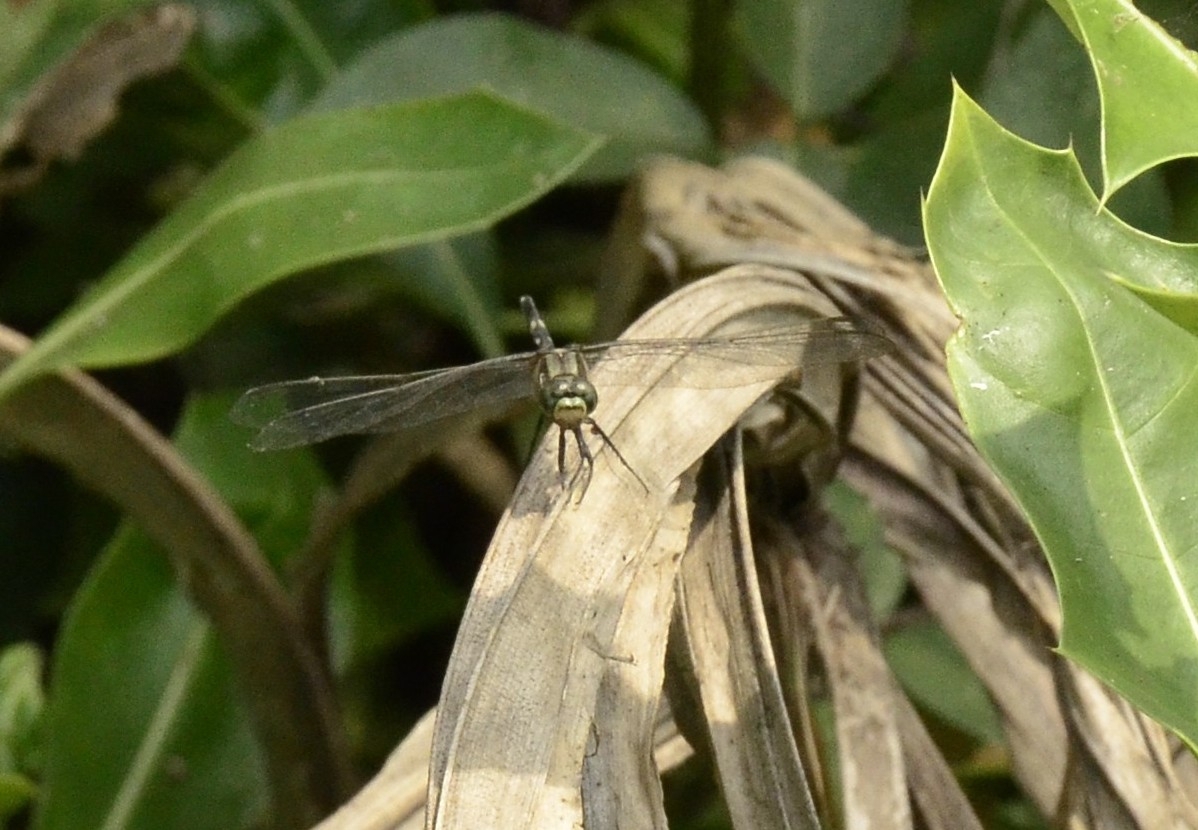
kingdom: Animalia
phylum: Arthropoda
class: Insecta
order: Odonata
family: Libellulidae
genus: Orthetrum
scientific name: Orthetrum sabina
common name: Slender skimmer
